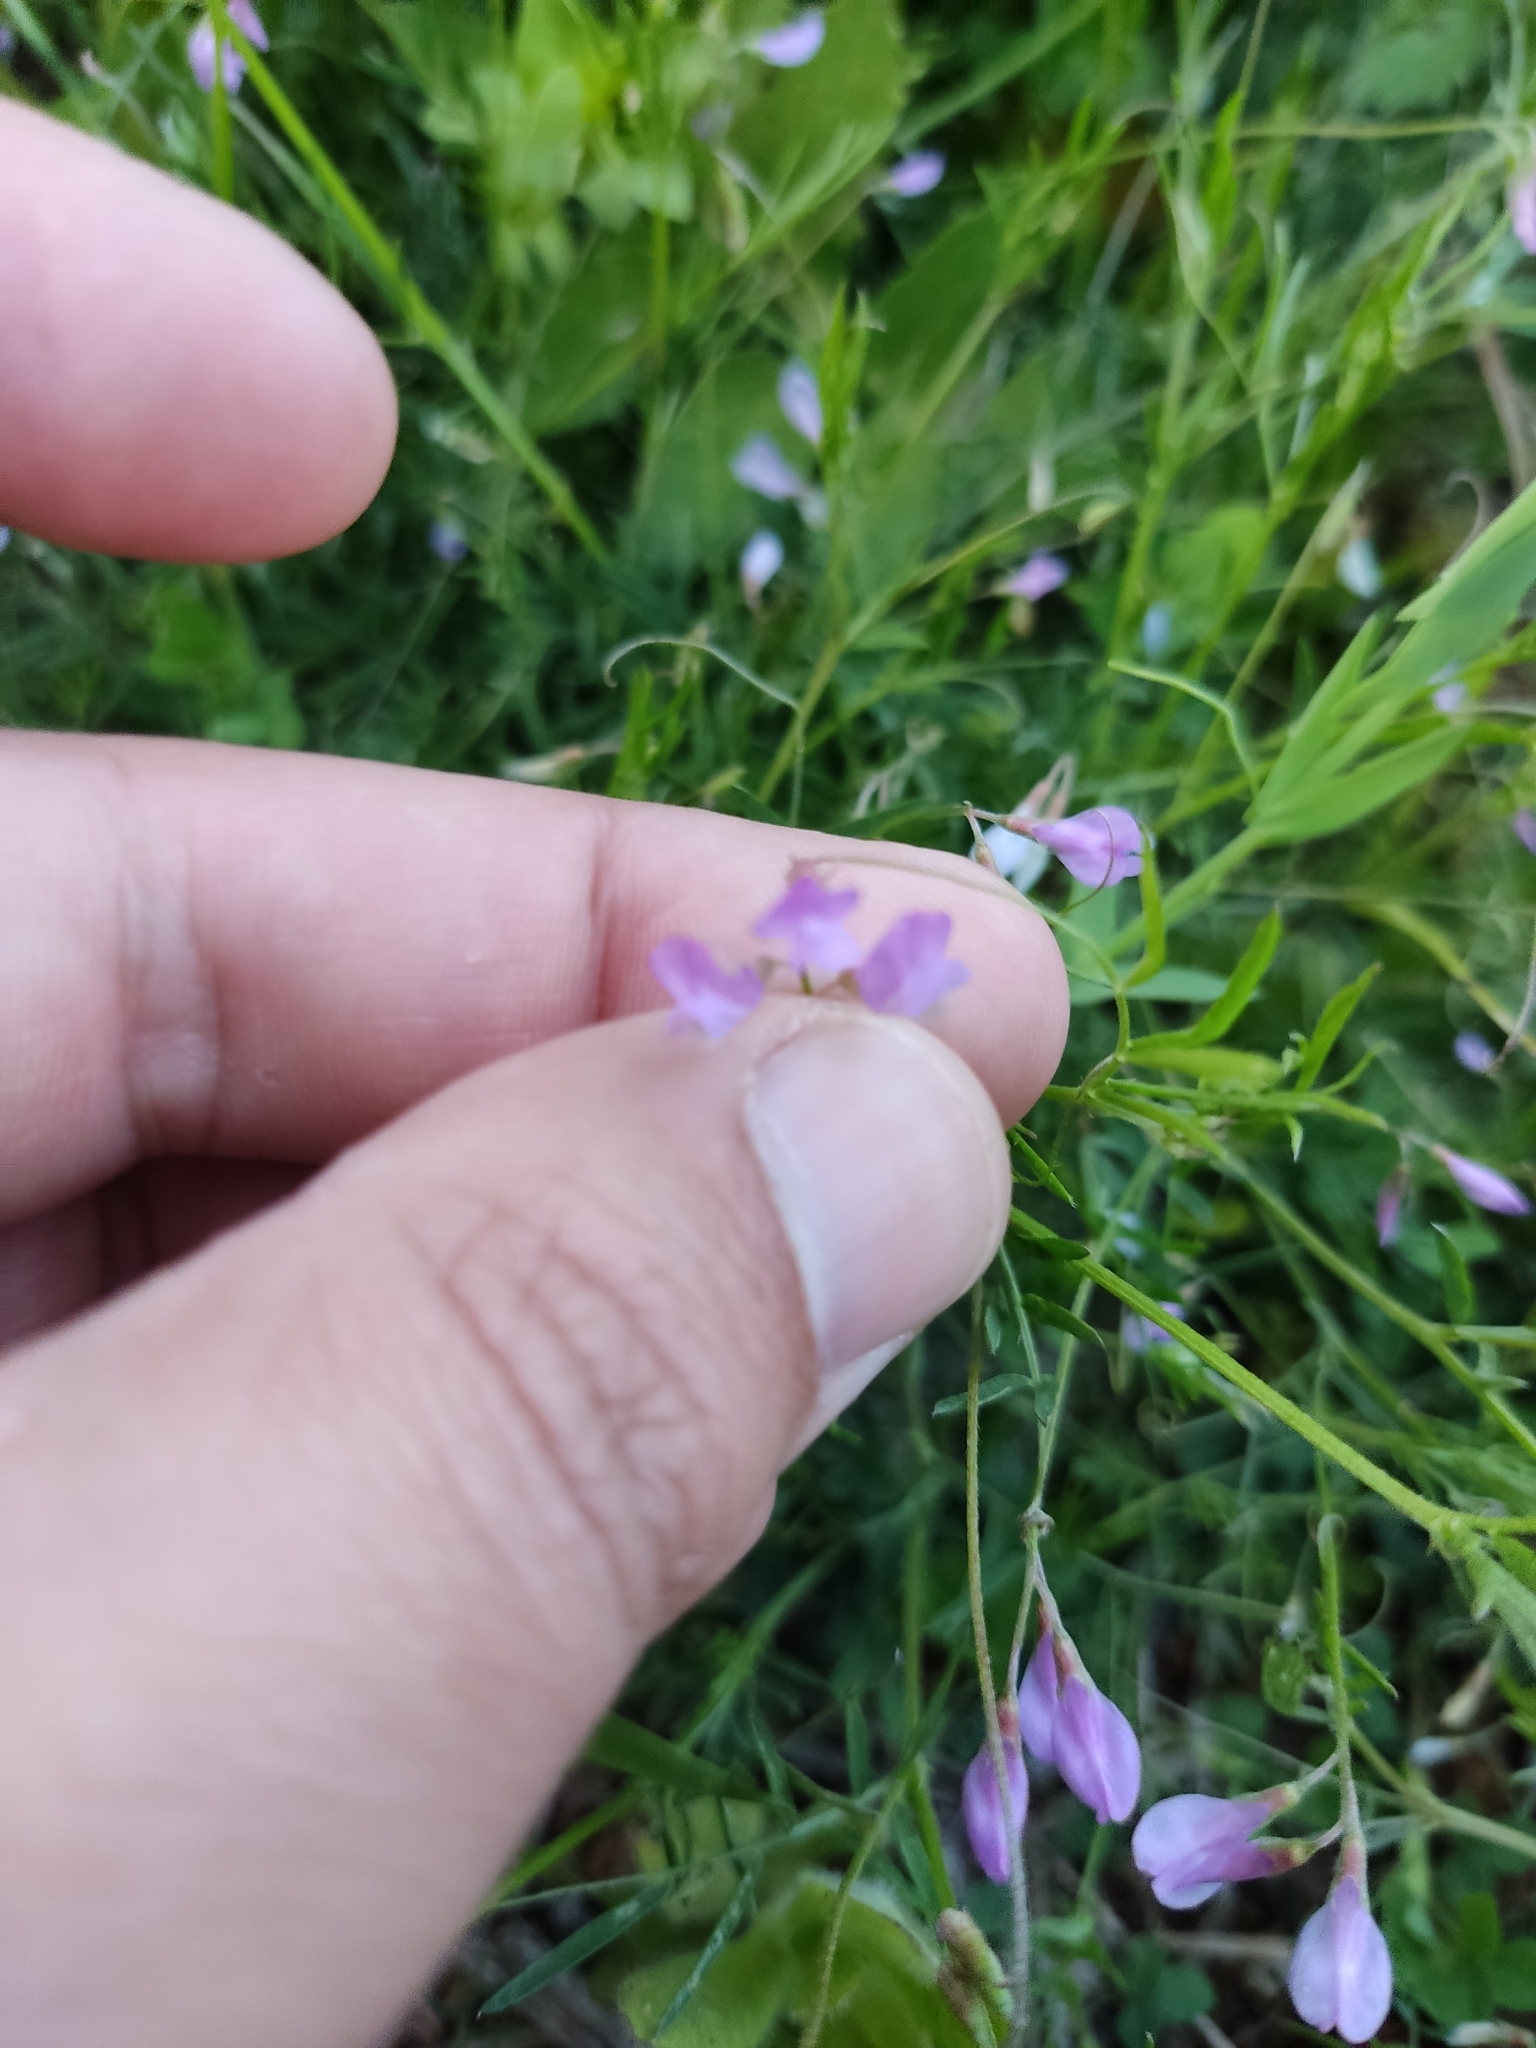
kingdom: Plantae
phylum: Tracheophyta
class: Magnoliopsida
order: Fabales
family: Fabaceae
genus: Vicia
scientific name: Vicia parviflora
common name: Slender tare
